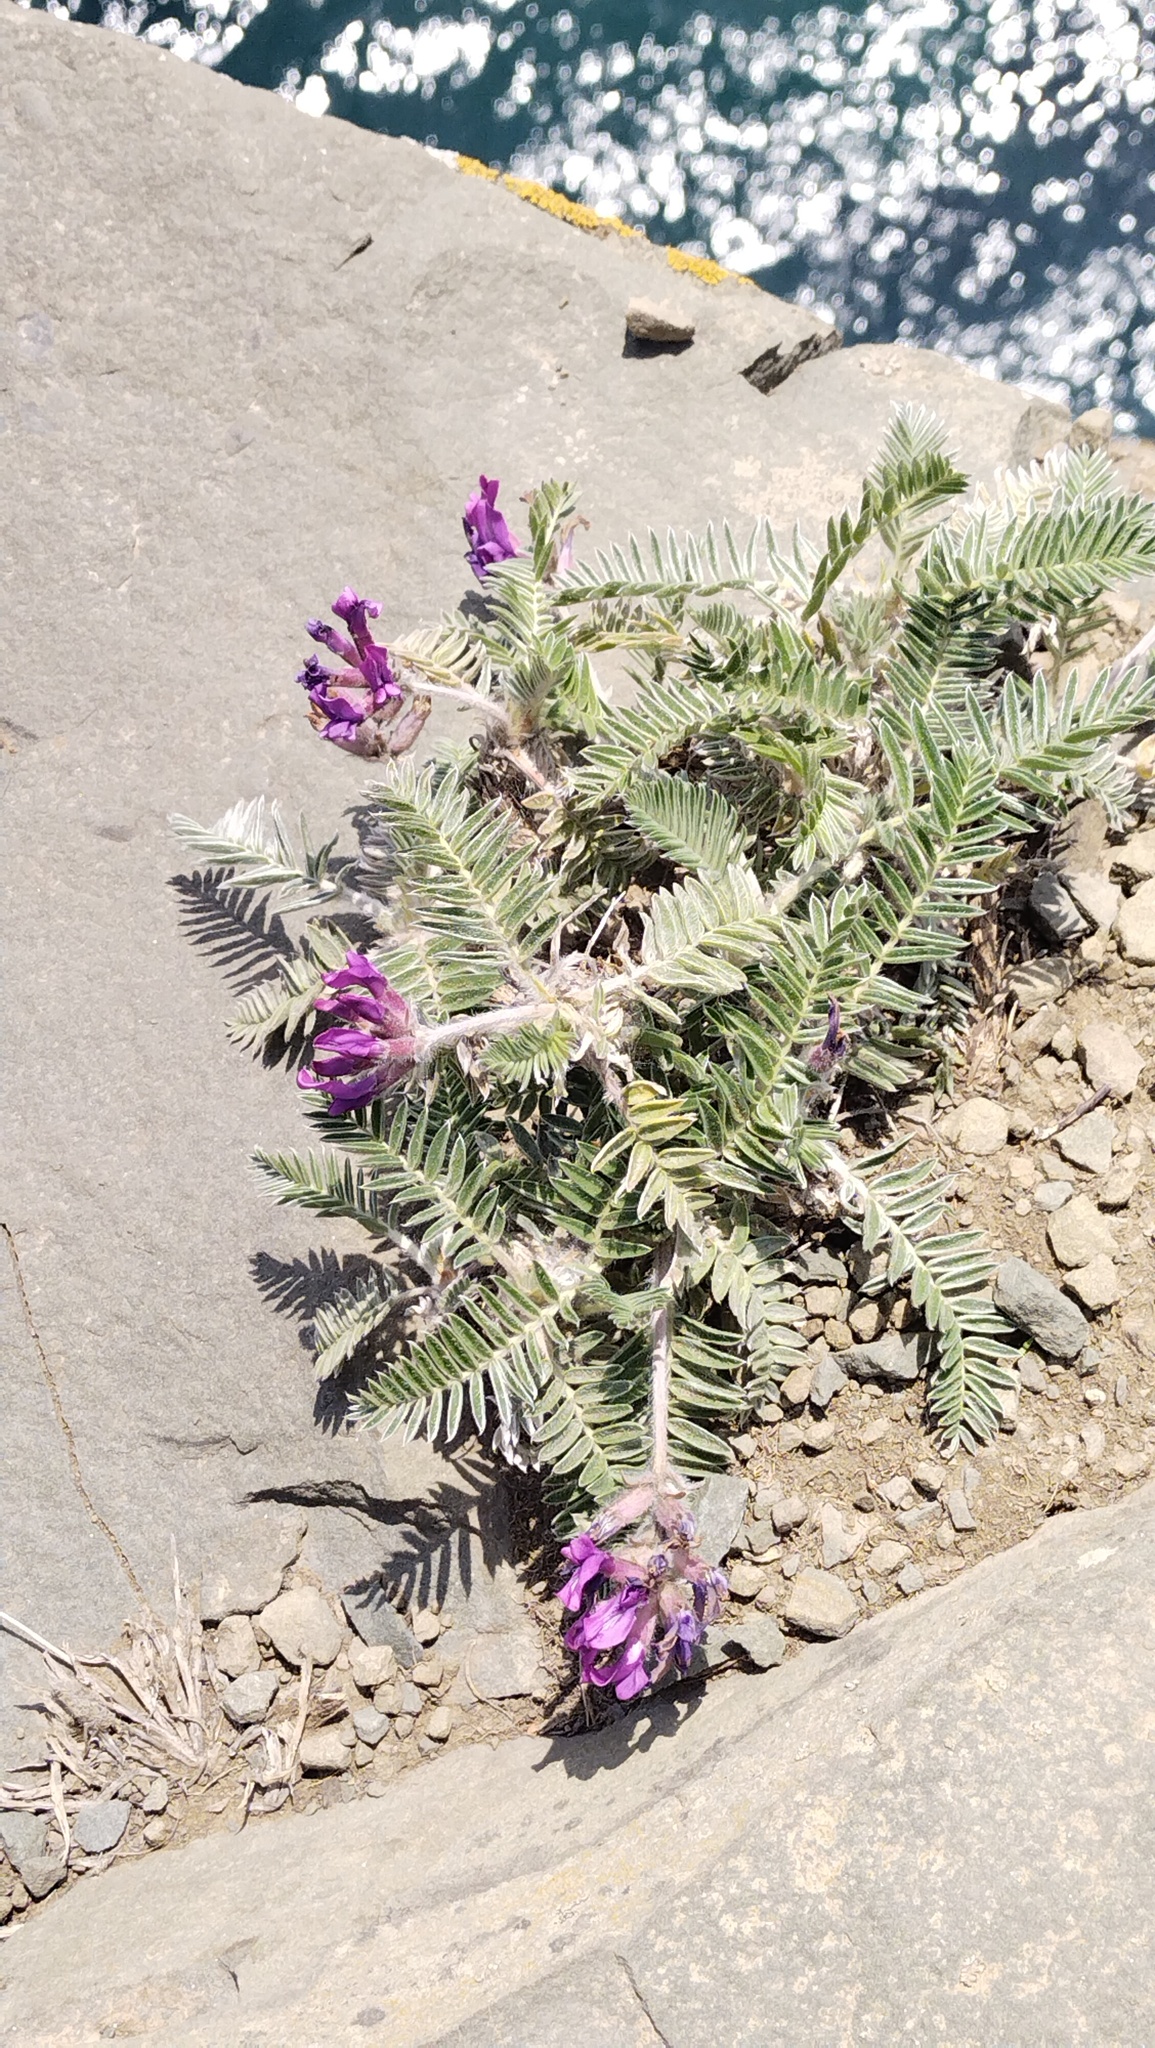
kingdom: Plantae
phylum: Tracheophyta
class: Magnoliopsida
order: Fabales
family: Fabaceae
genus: Oxytropis
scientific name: Oxytropis ruthenica
